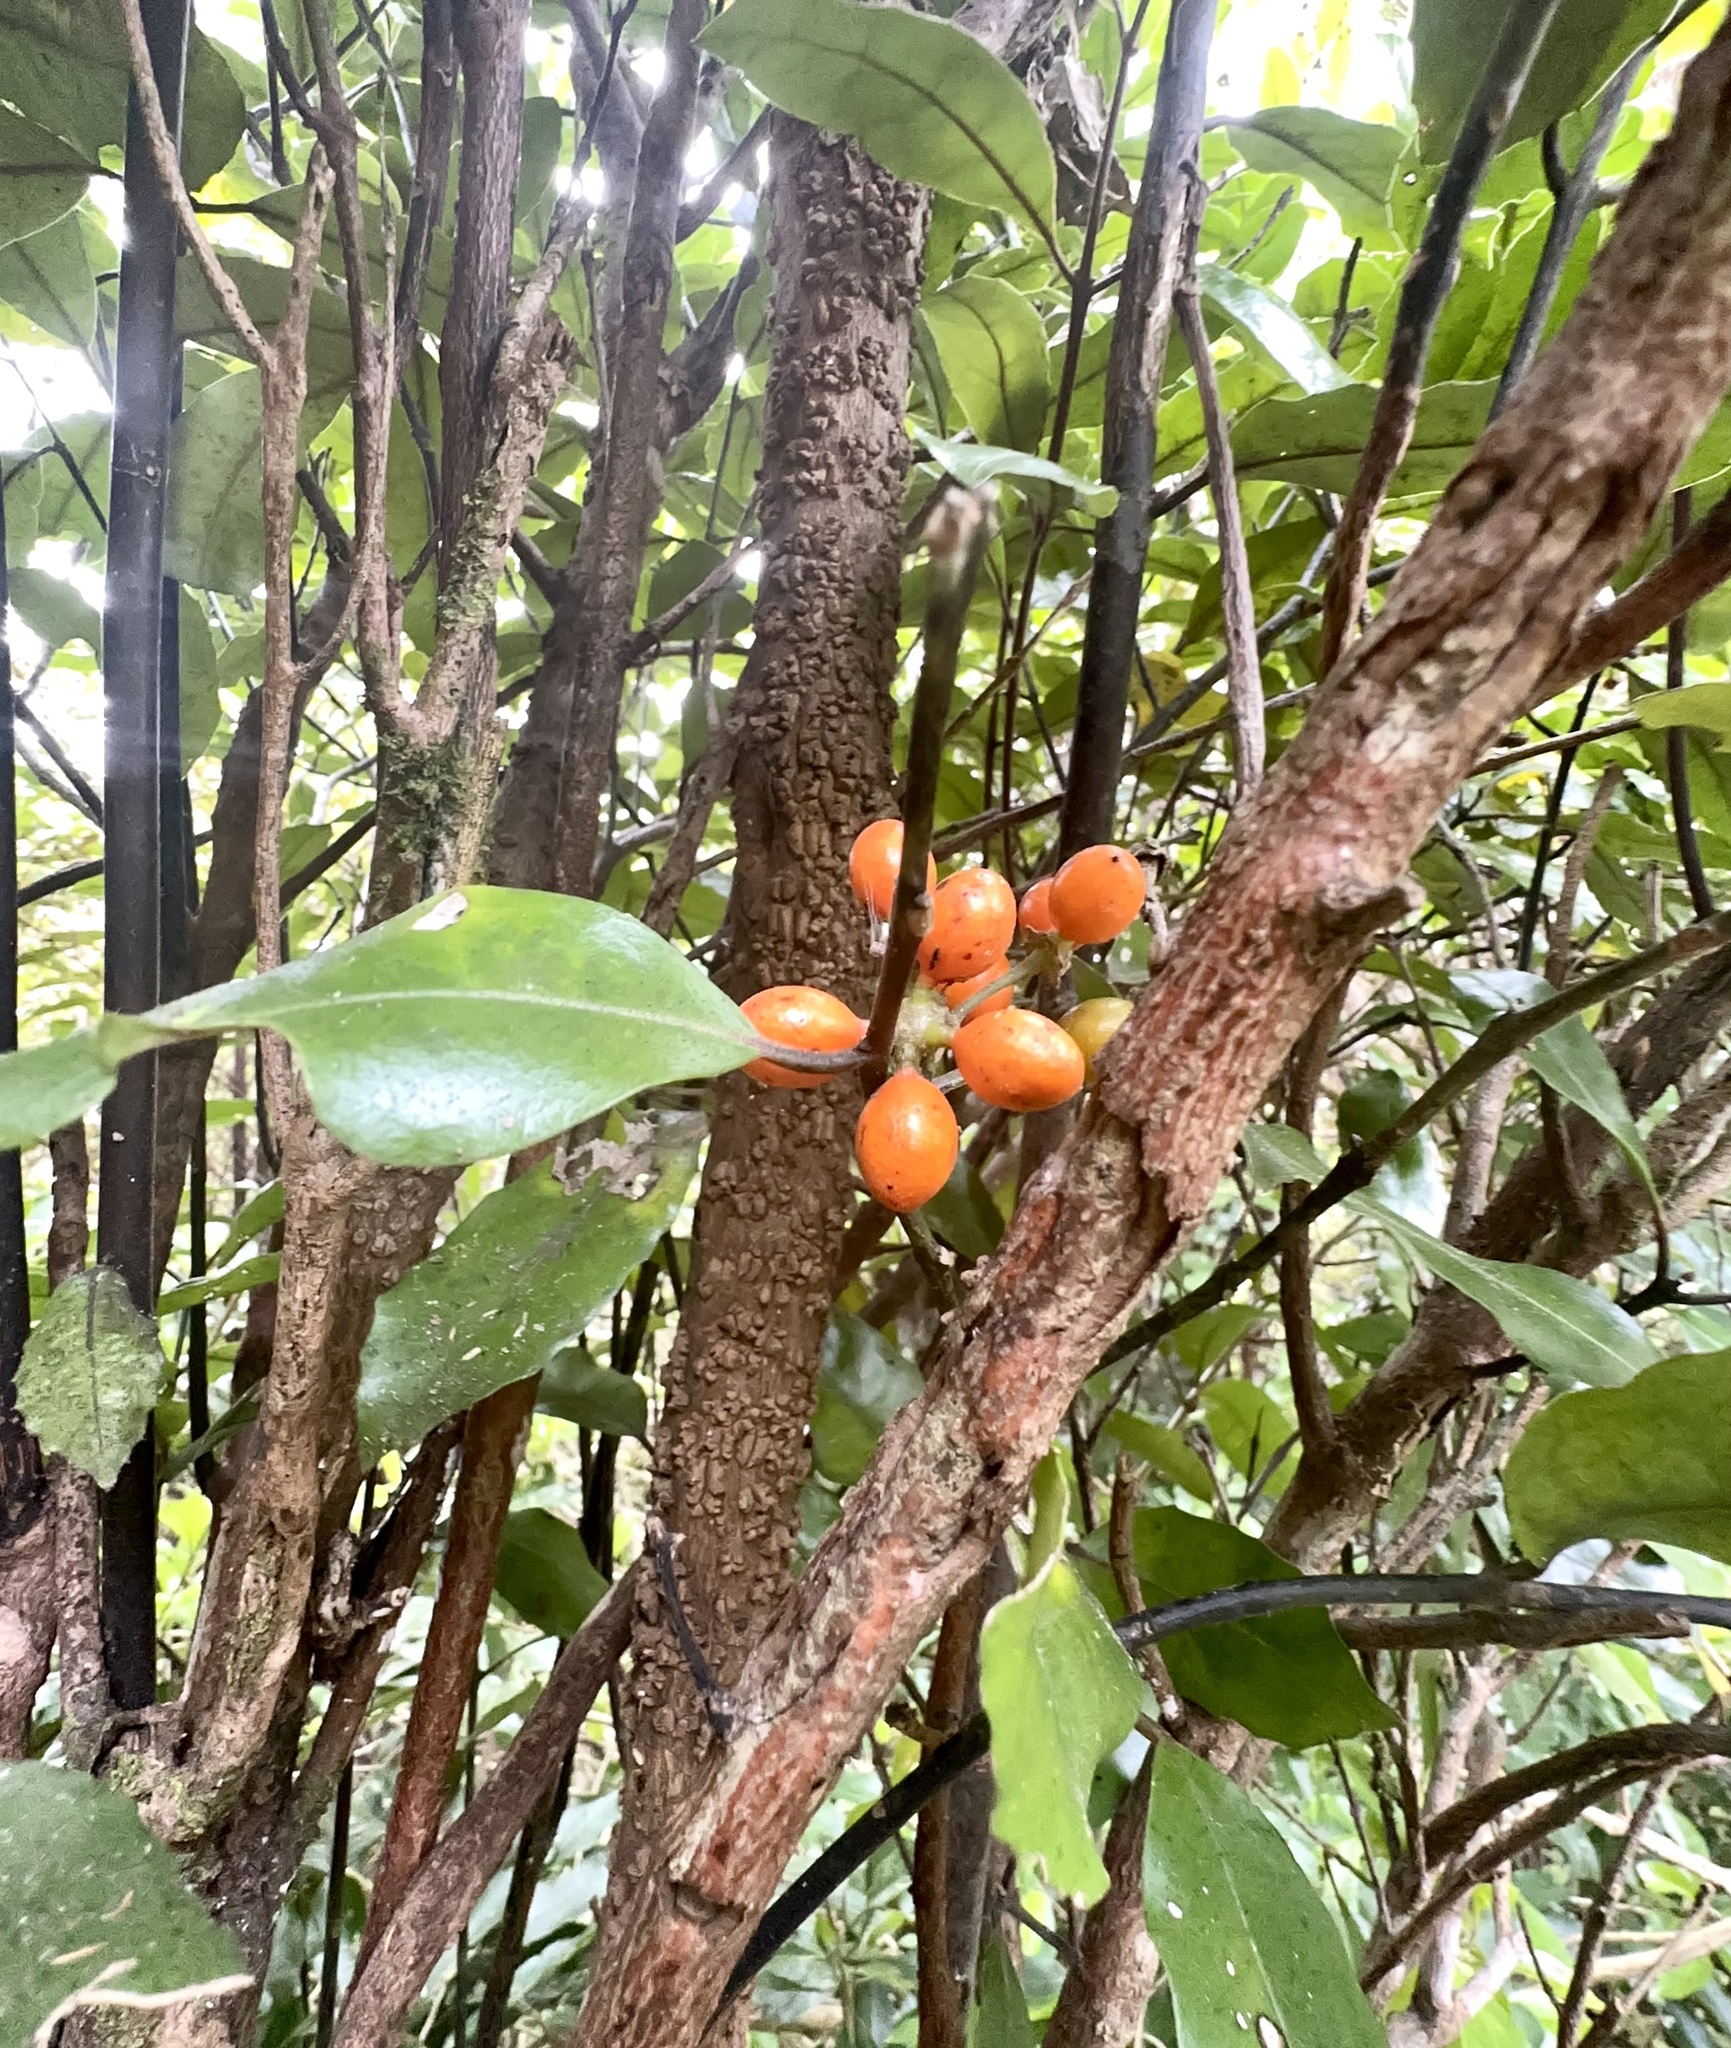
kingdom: Plantae
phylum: Tracheophyta
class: Magnoliopsida
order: Laurales
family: Monimiaceae
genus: Hedycarya
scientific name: Hedycarya arborea
